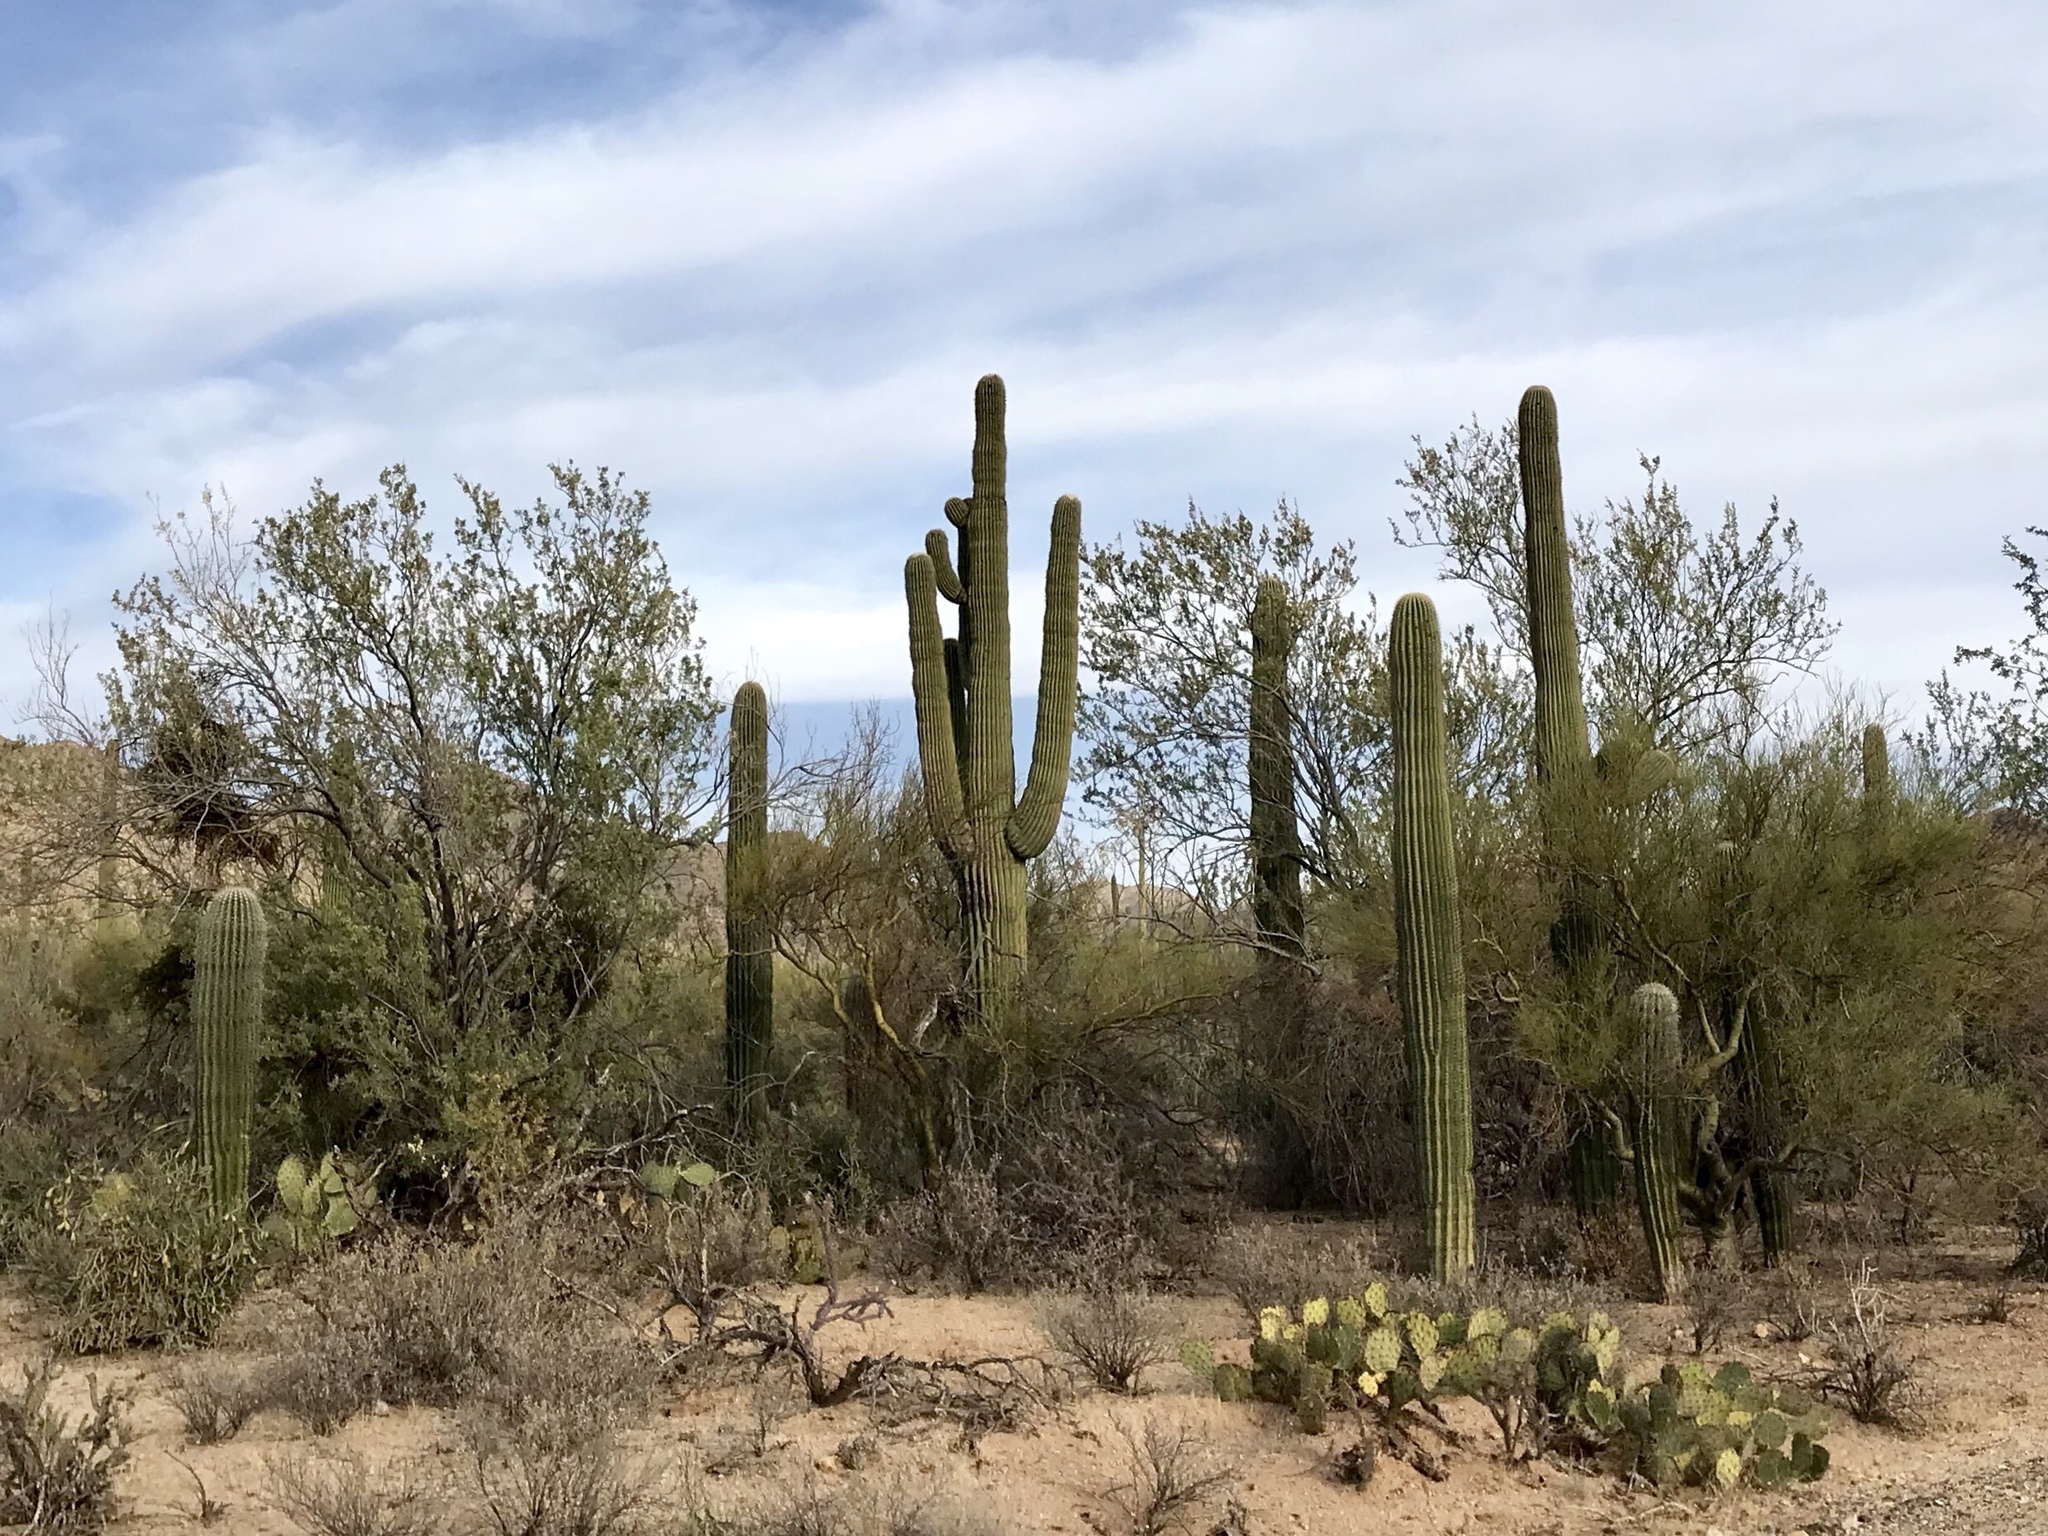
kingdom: Plantae
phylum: Tracheophyta
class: Magnoliopsida
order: Caryophyllales
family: Cactaceae
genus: Carnegiea
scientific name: Carnegiea gigantea
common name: Saguaro
